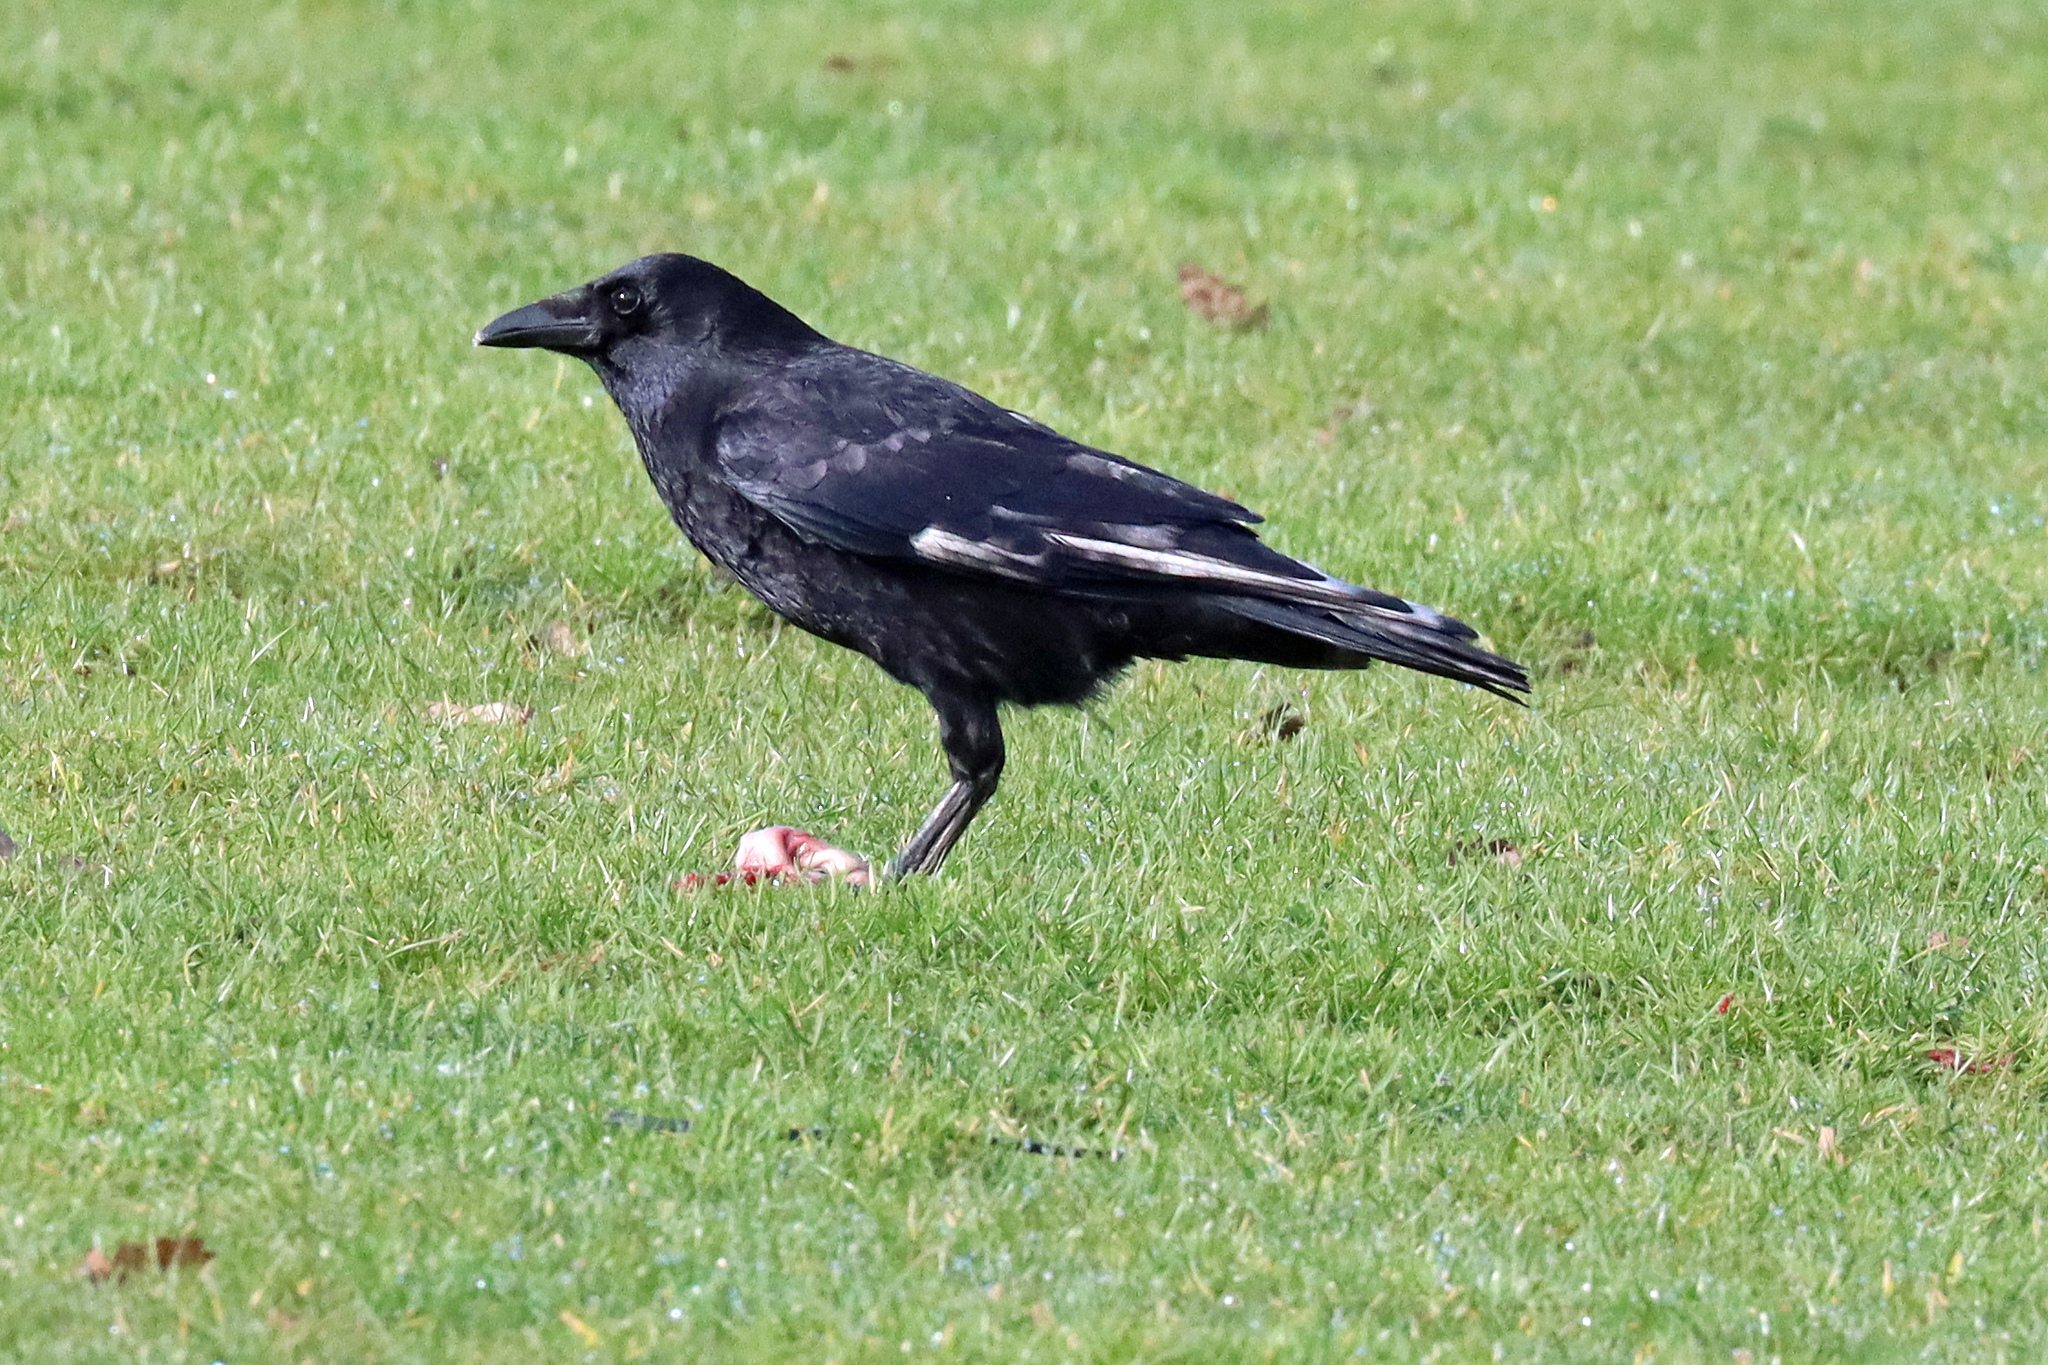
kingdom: Animalia
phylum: Chordata
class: Aves
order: Passeriformes
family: Corvidae
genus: Corvus
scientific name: Corvus corone
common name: Carrion crow
